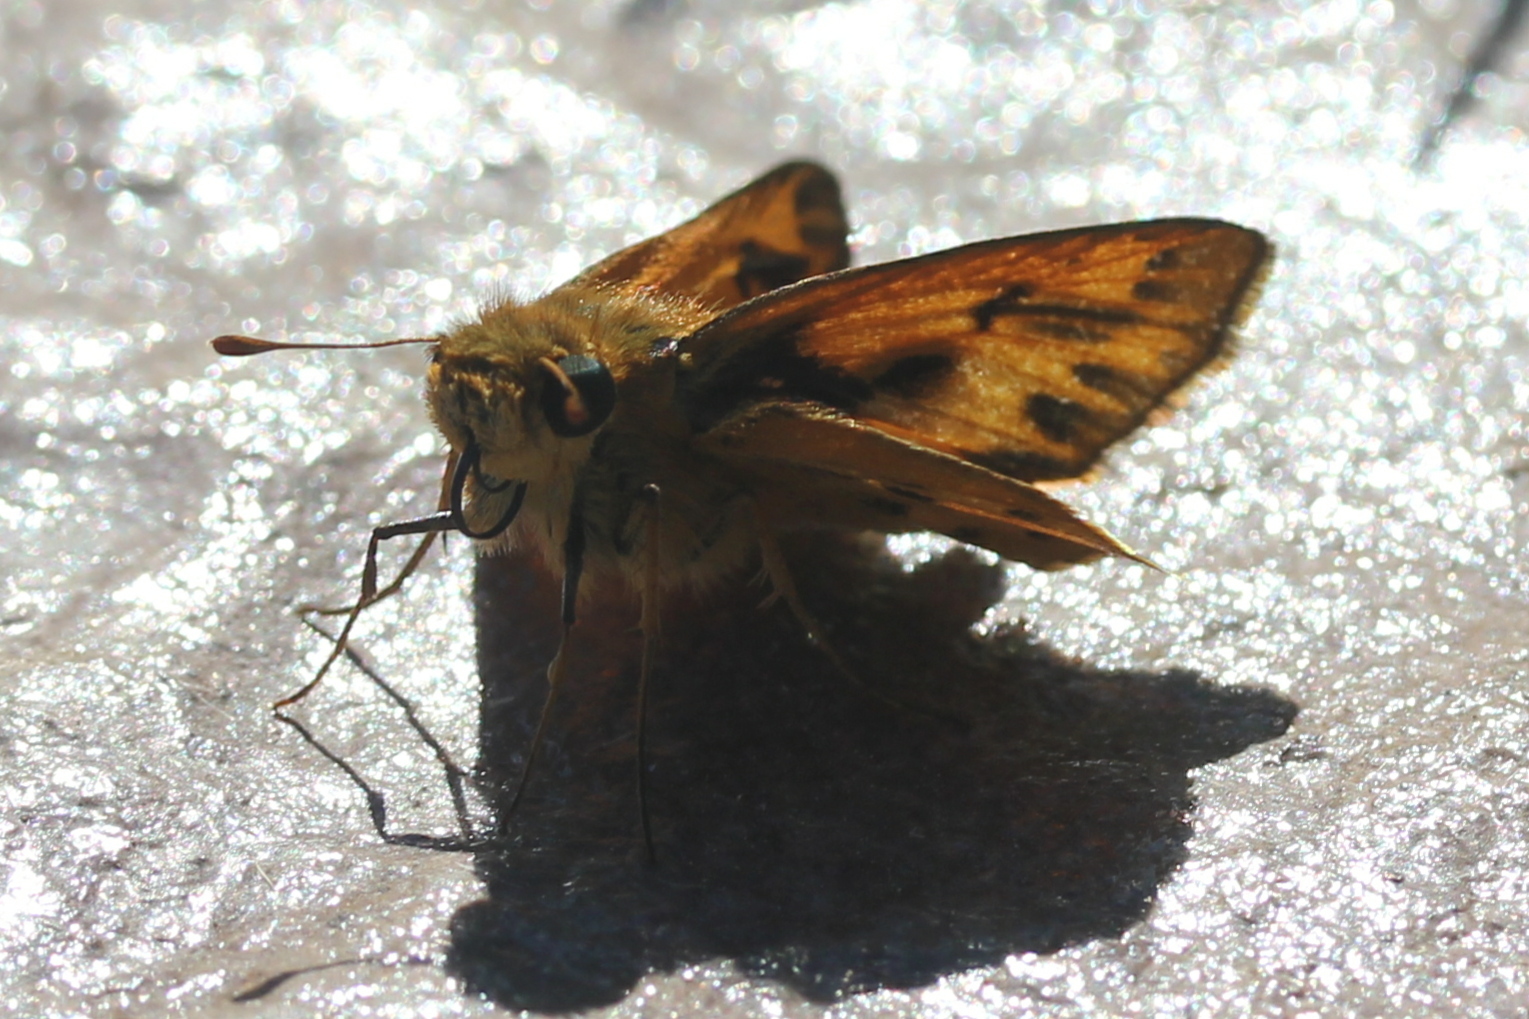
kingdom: Animalia
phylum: Arthropoda
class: Insecta
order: Lepidoptera
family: Hesperiidae
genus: Hylephila
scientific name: Hylephila phyleus
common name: Fiery skipper
